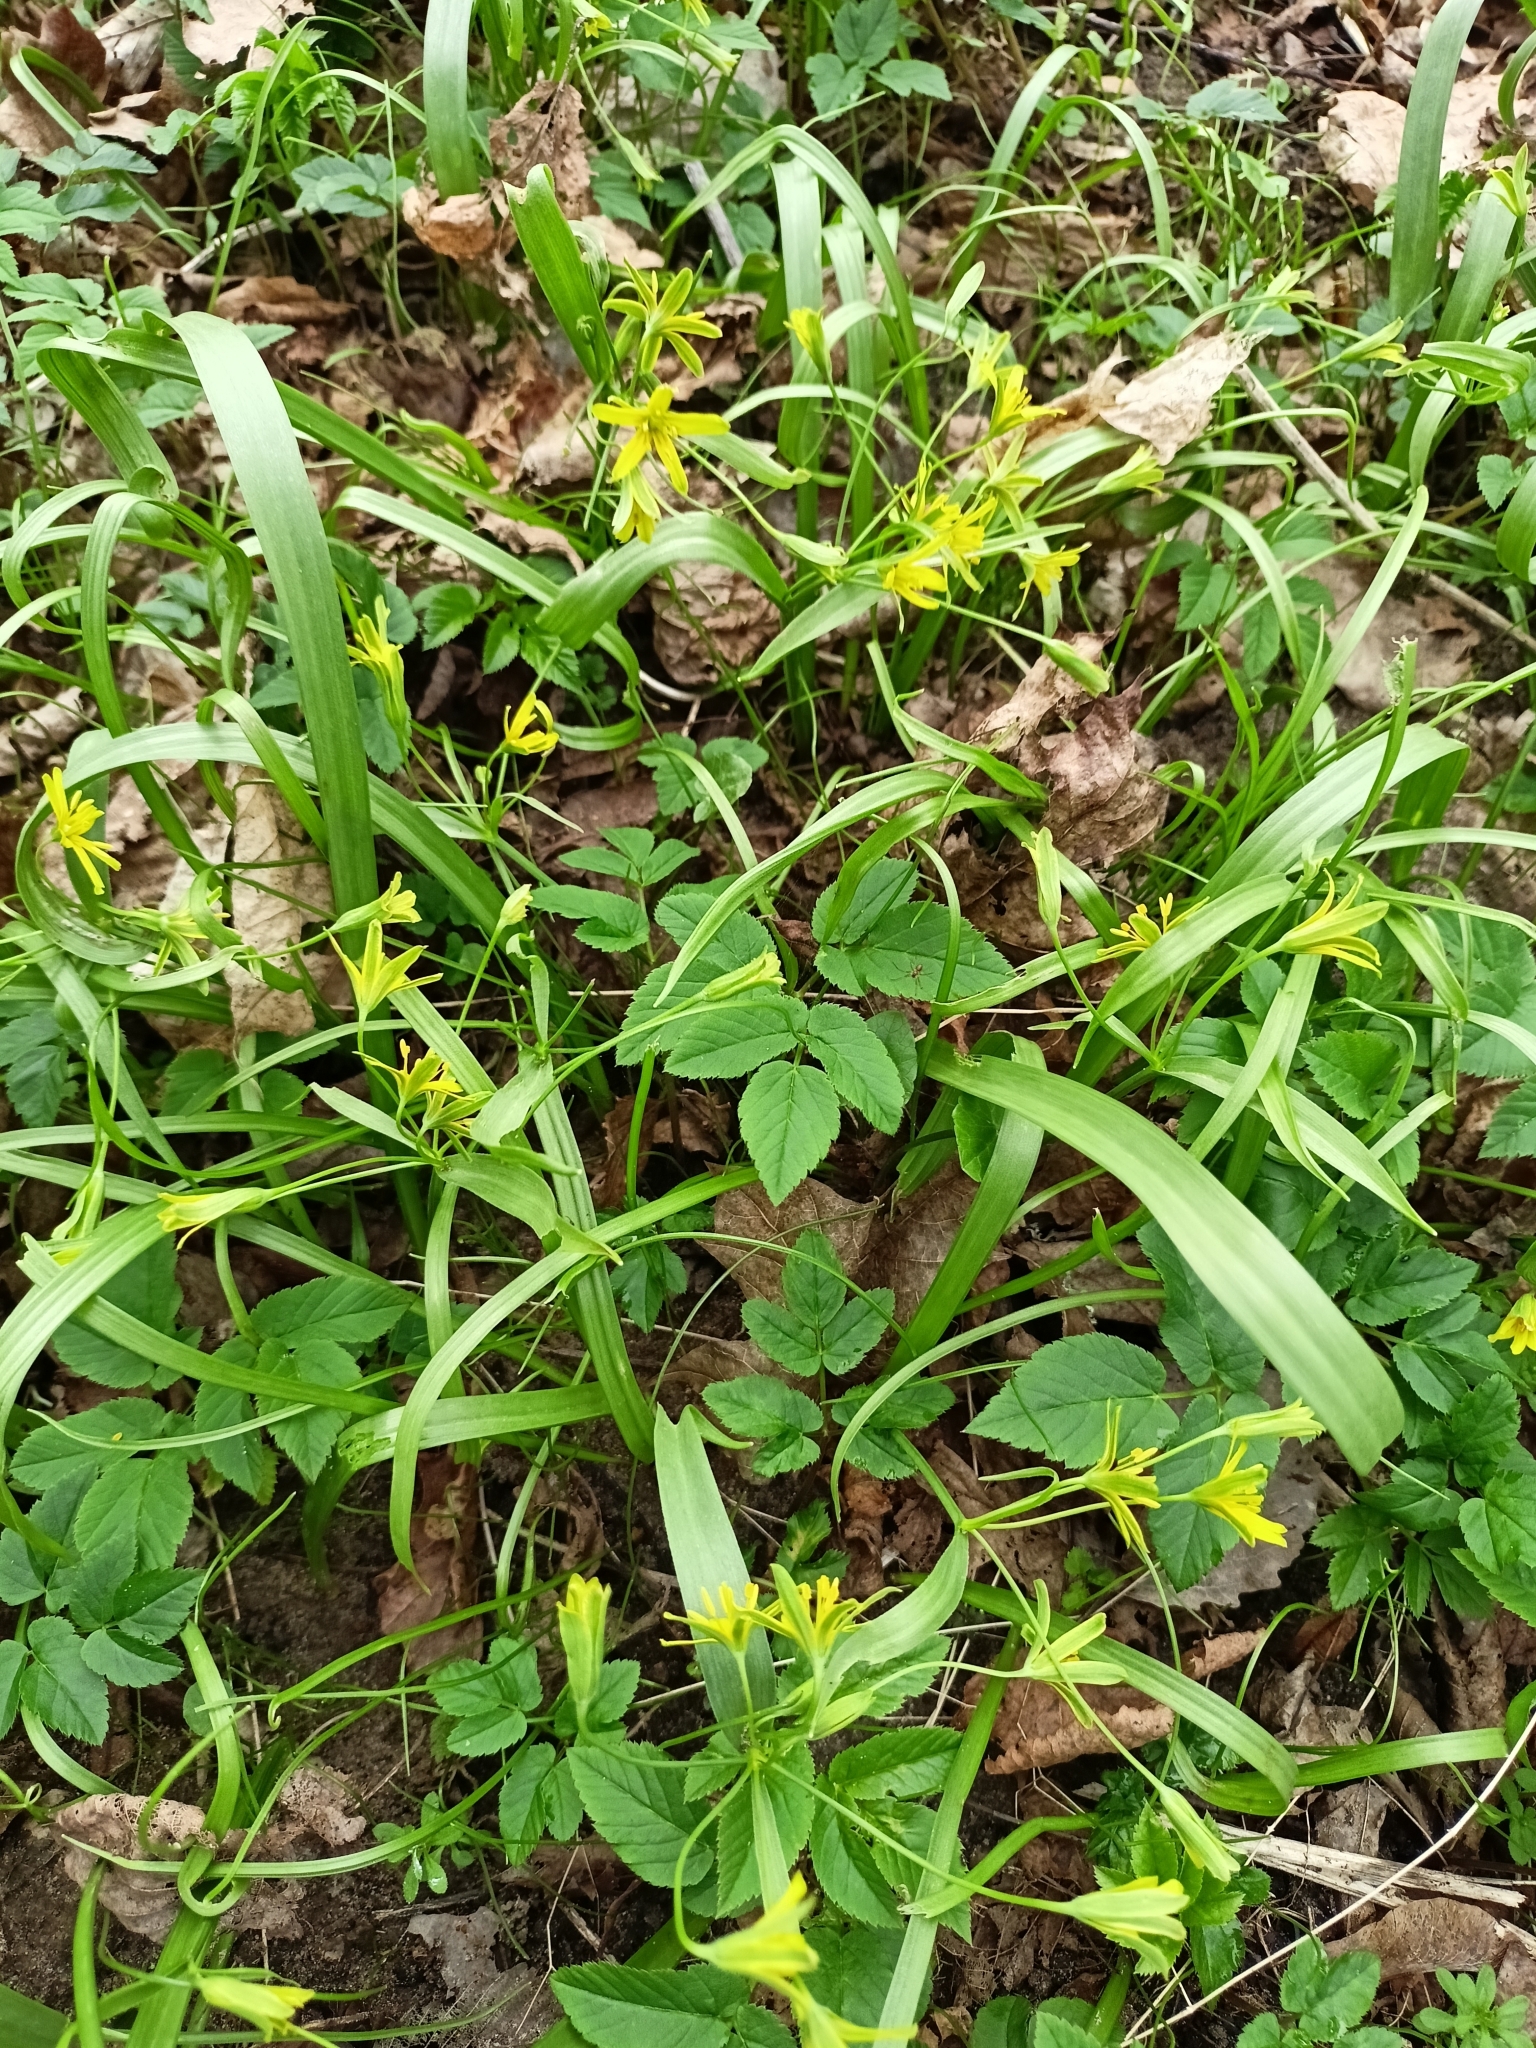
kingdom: Plantae
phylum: Tracheophyta
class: Liliopsida
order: Liliales
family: Liliaceae
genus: Gagea
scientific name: Gagea lutea
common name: Yellow star-of-bethlehem
